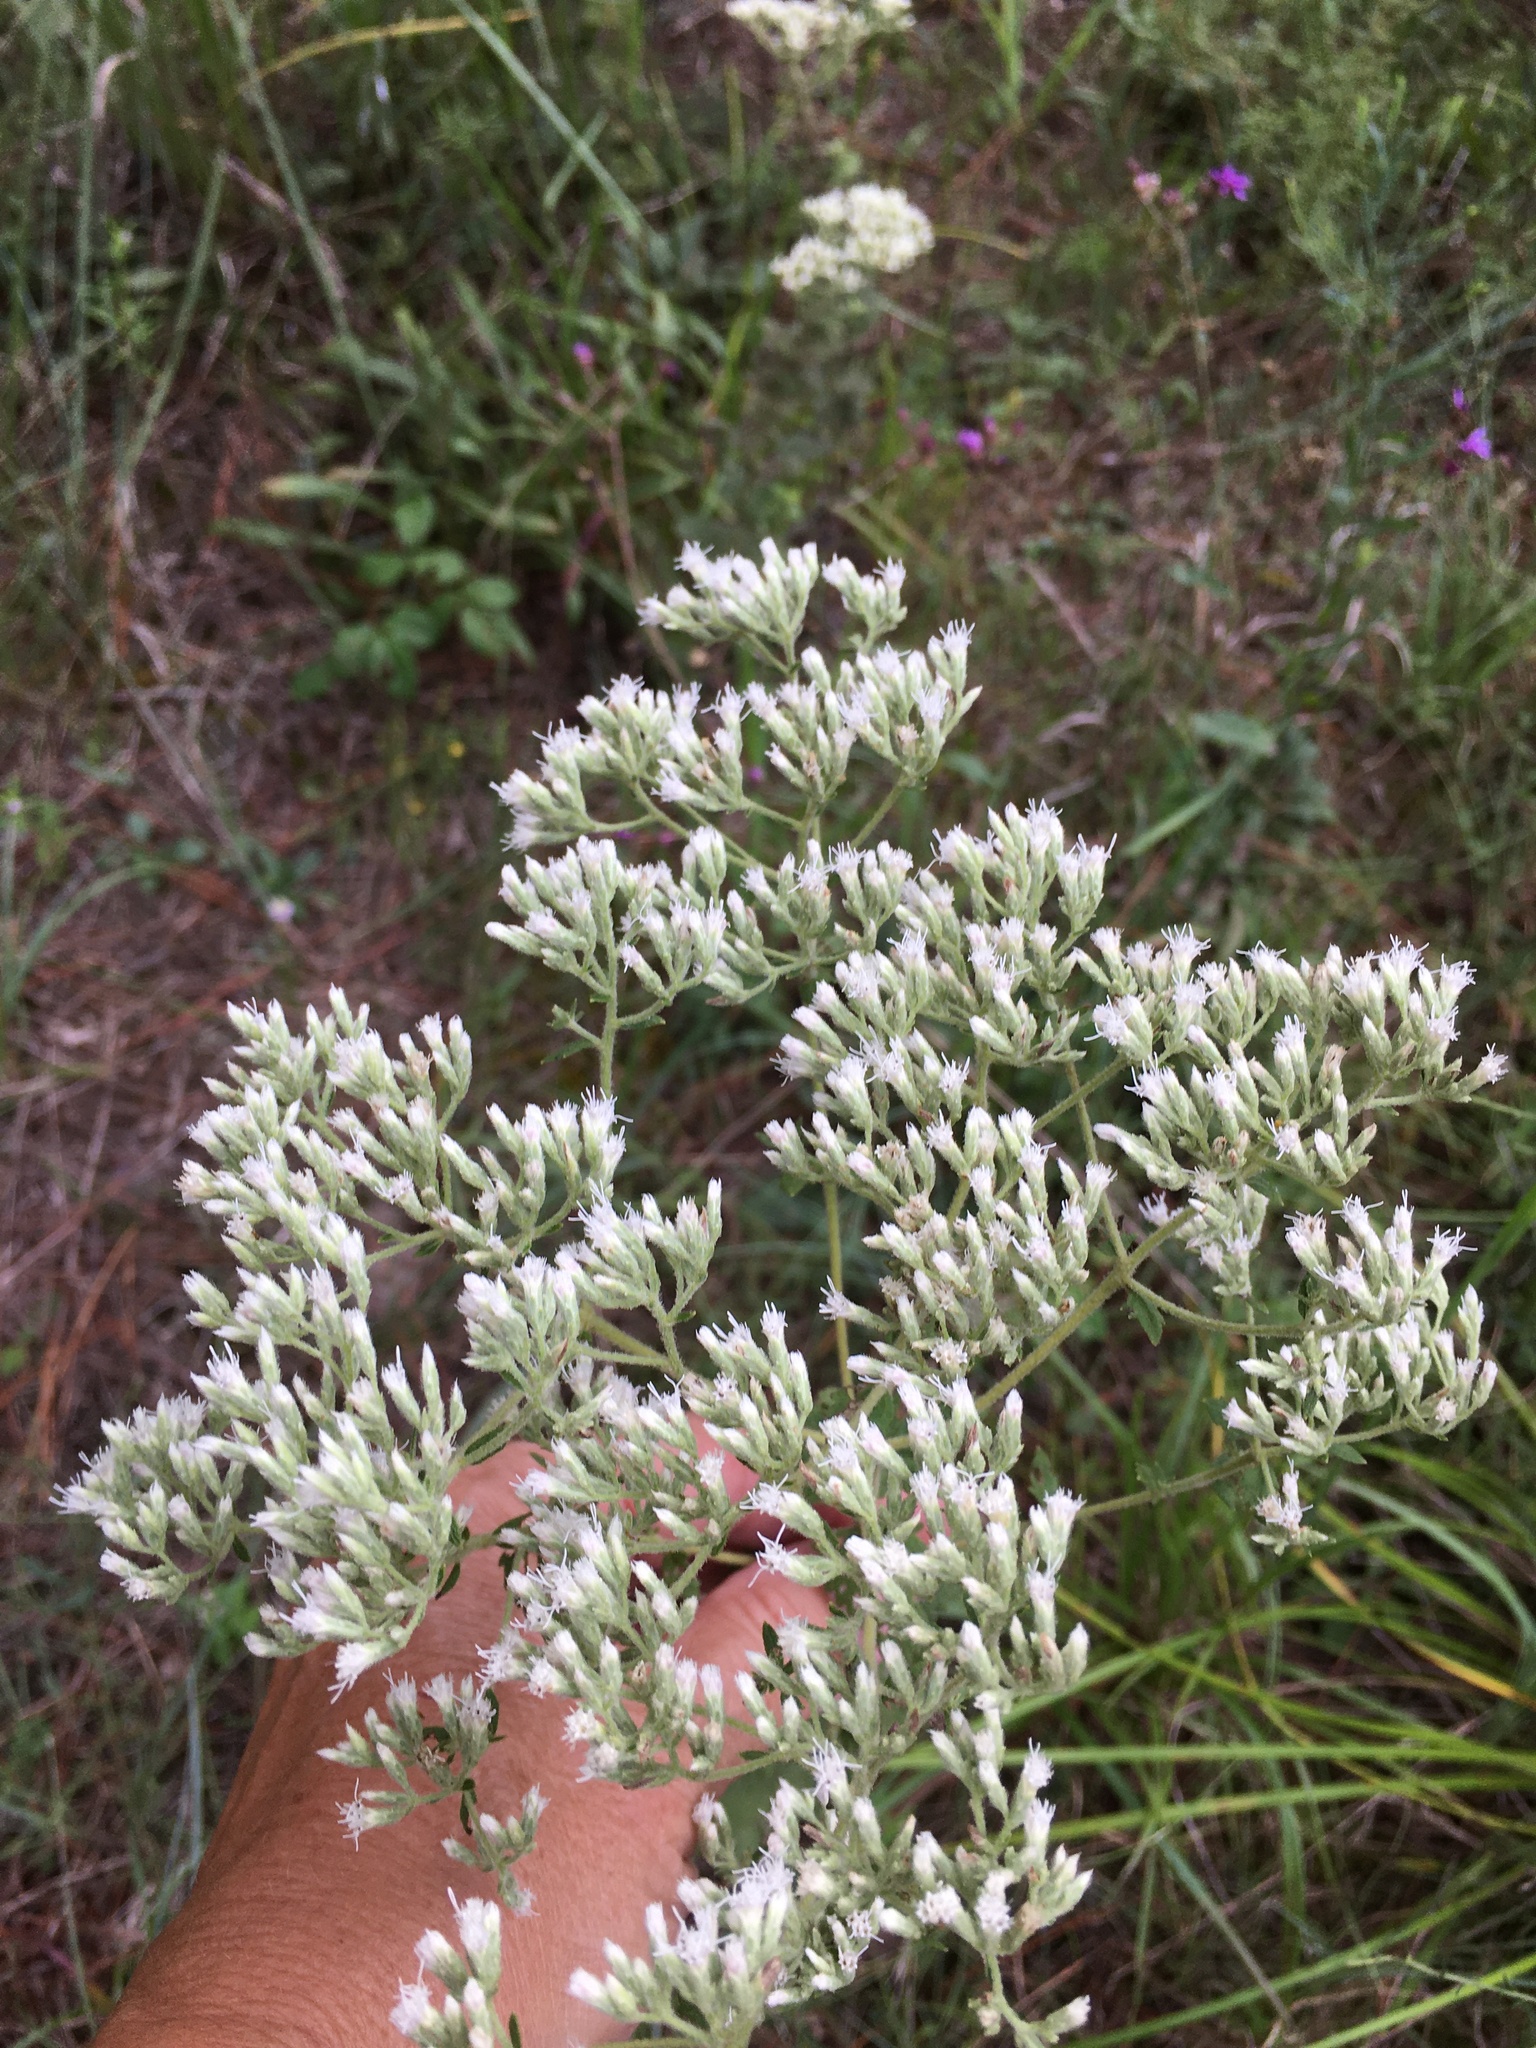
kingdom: Plantae
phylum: Tracheophyta
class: Magnoliopsida
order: Asterales
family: Asteraceae
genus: Eupatorium
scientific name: Eupatorium rotundifolium
